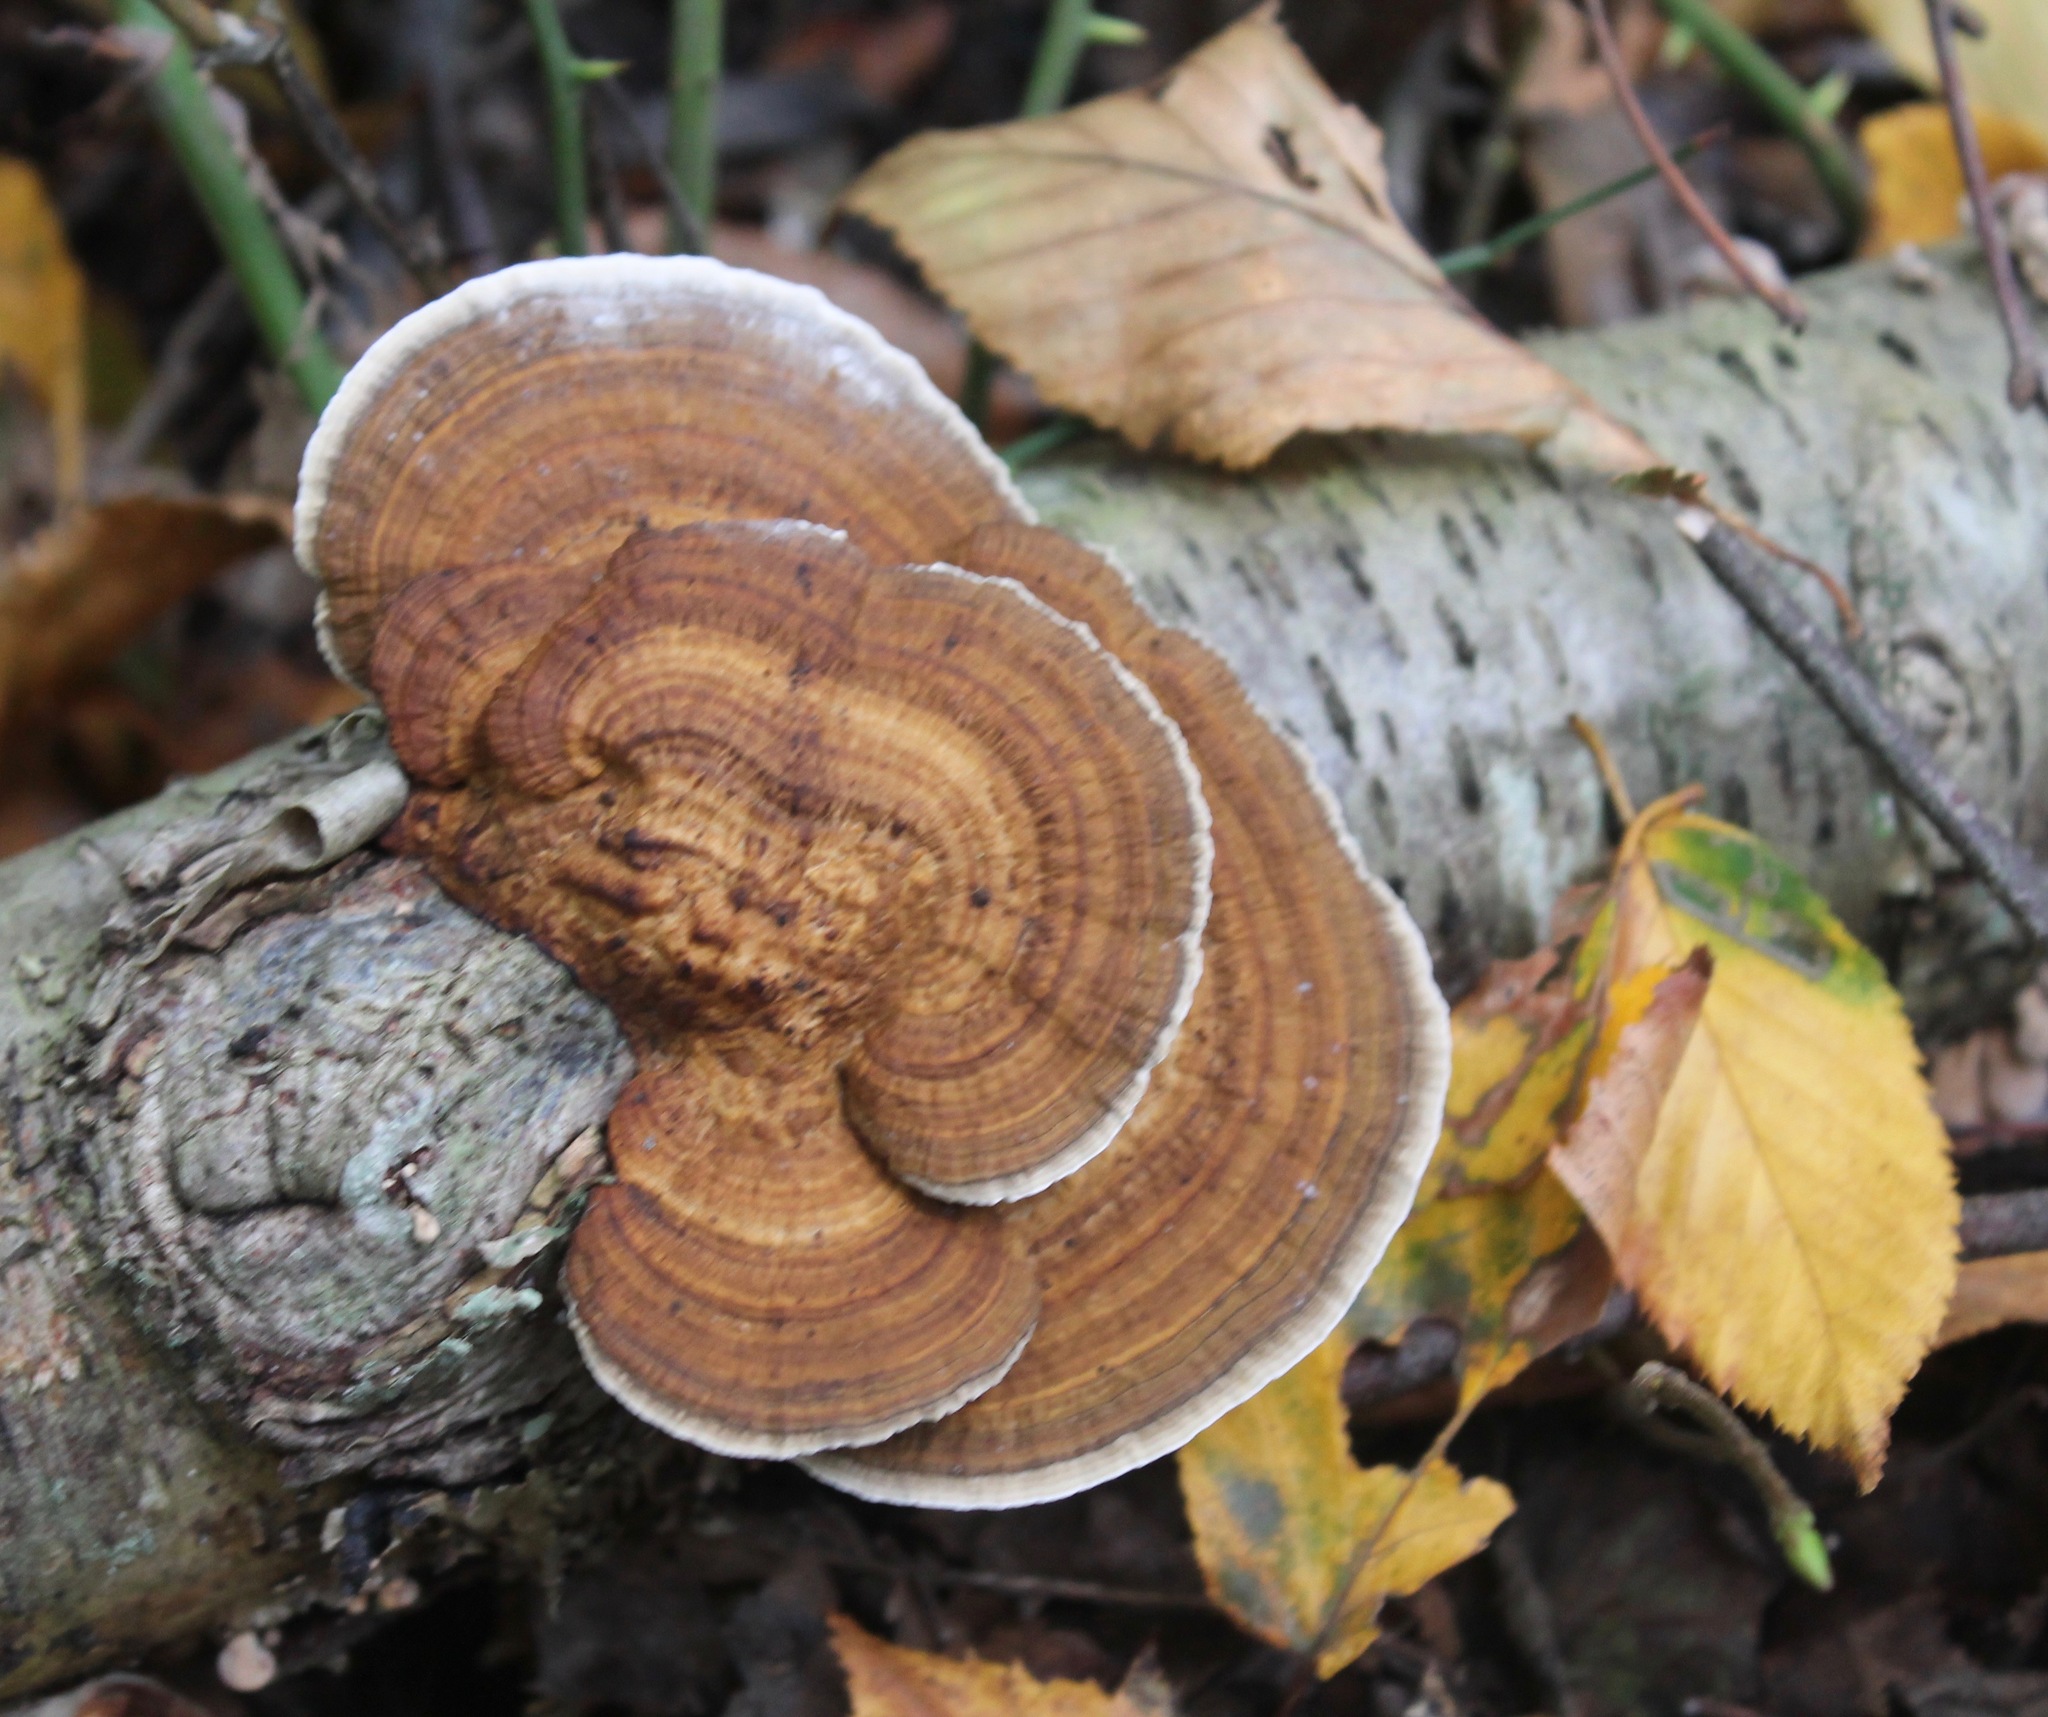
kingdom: Fungi
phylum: Basidiomycota
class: Agaricomycetes
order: Polyporales
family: Polyporaceae
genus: Daedaleopsis
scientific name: Daedaleopsis confragosa
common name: Blushing bracket
